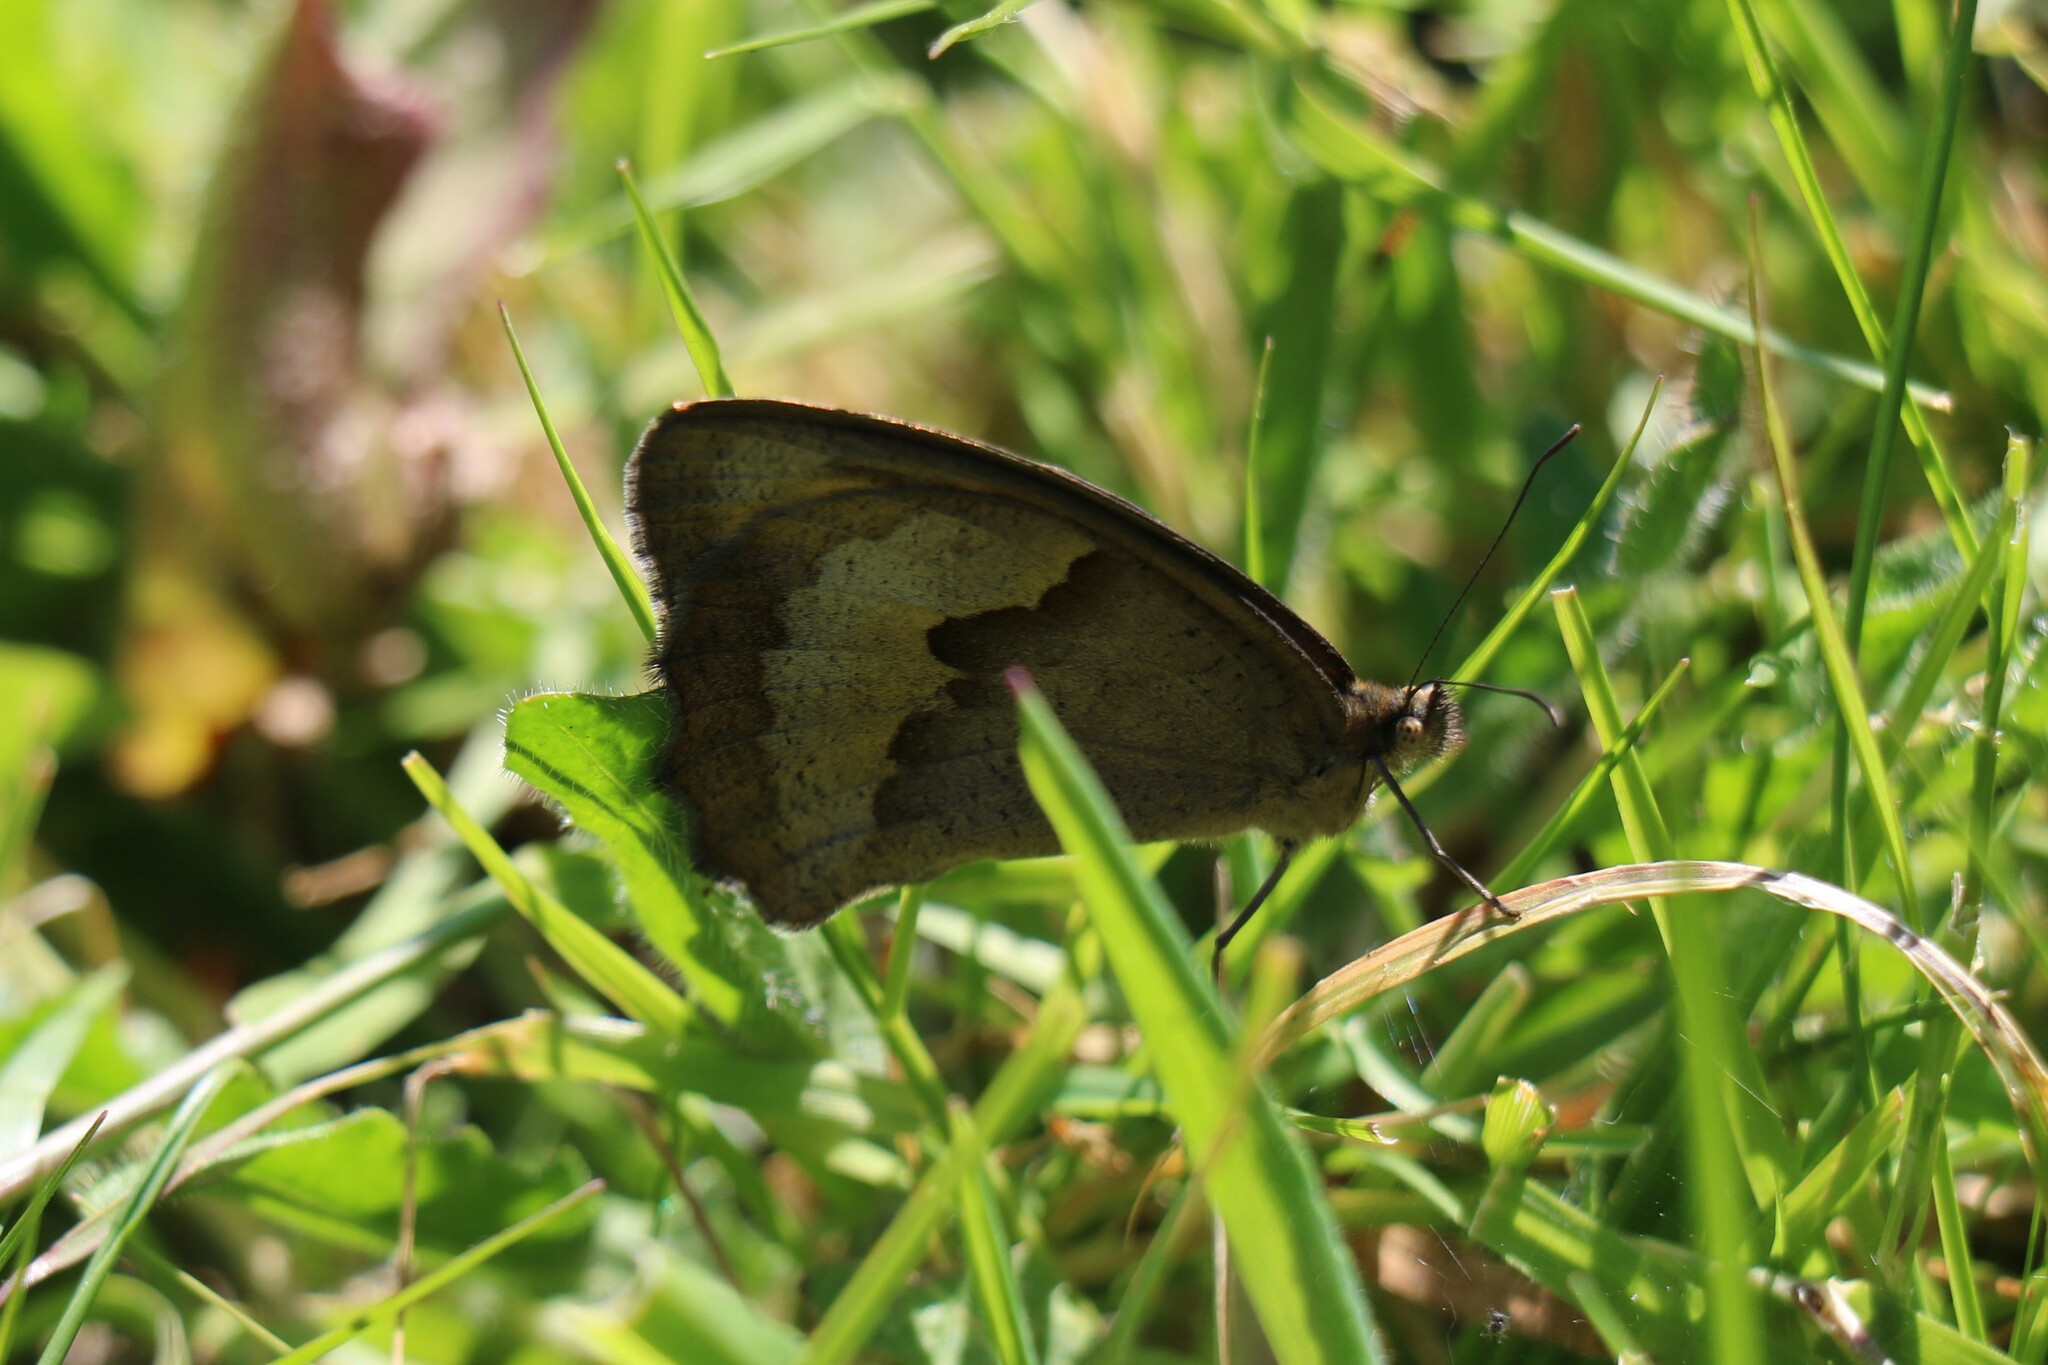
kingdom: Animalia
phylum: Arthropoda
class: Insecta
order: Lepidoptera
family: Nymphalidae
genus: Maniola
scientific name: Maniola jurtina
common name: Meadow brown
